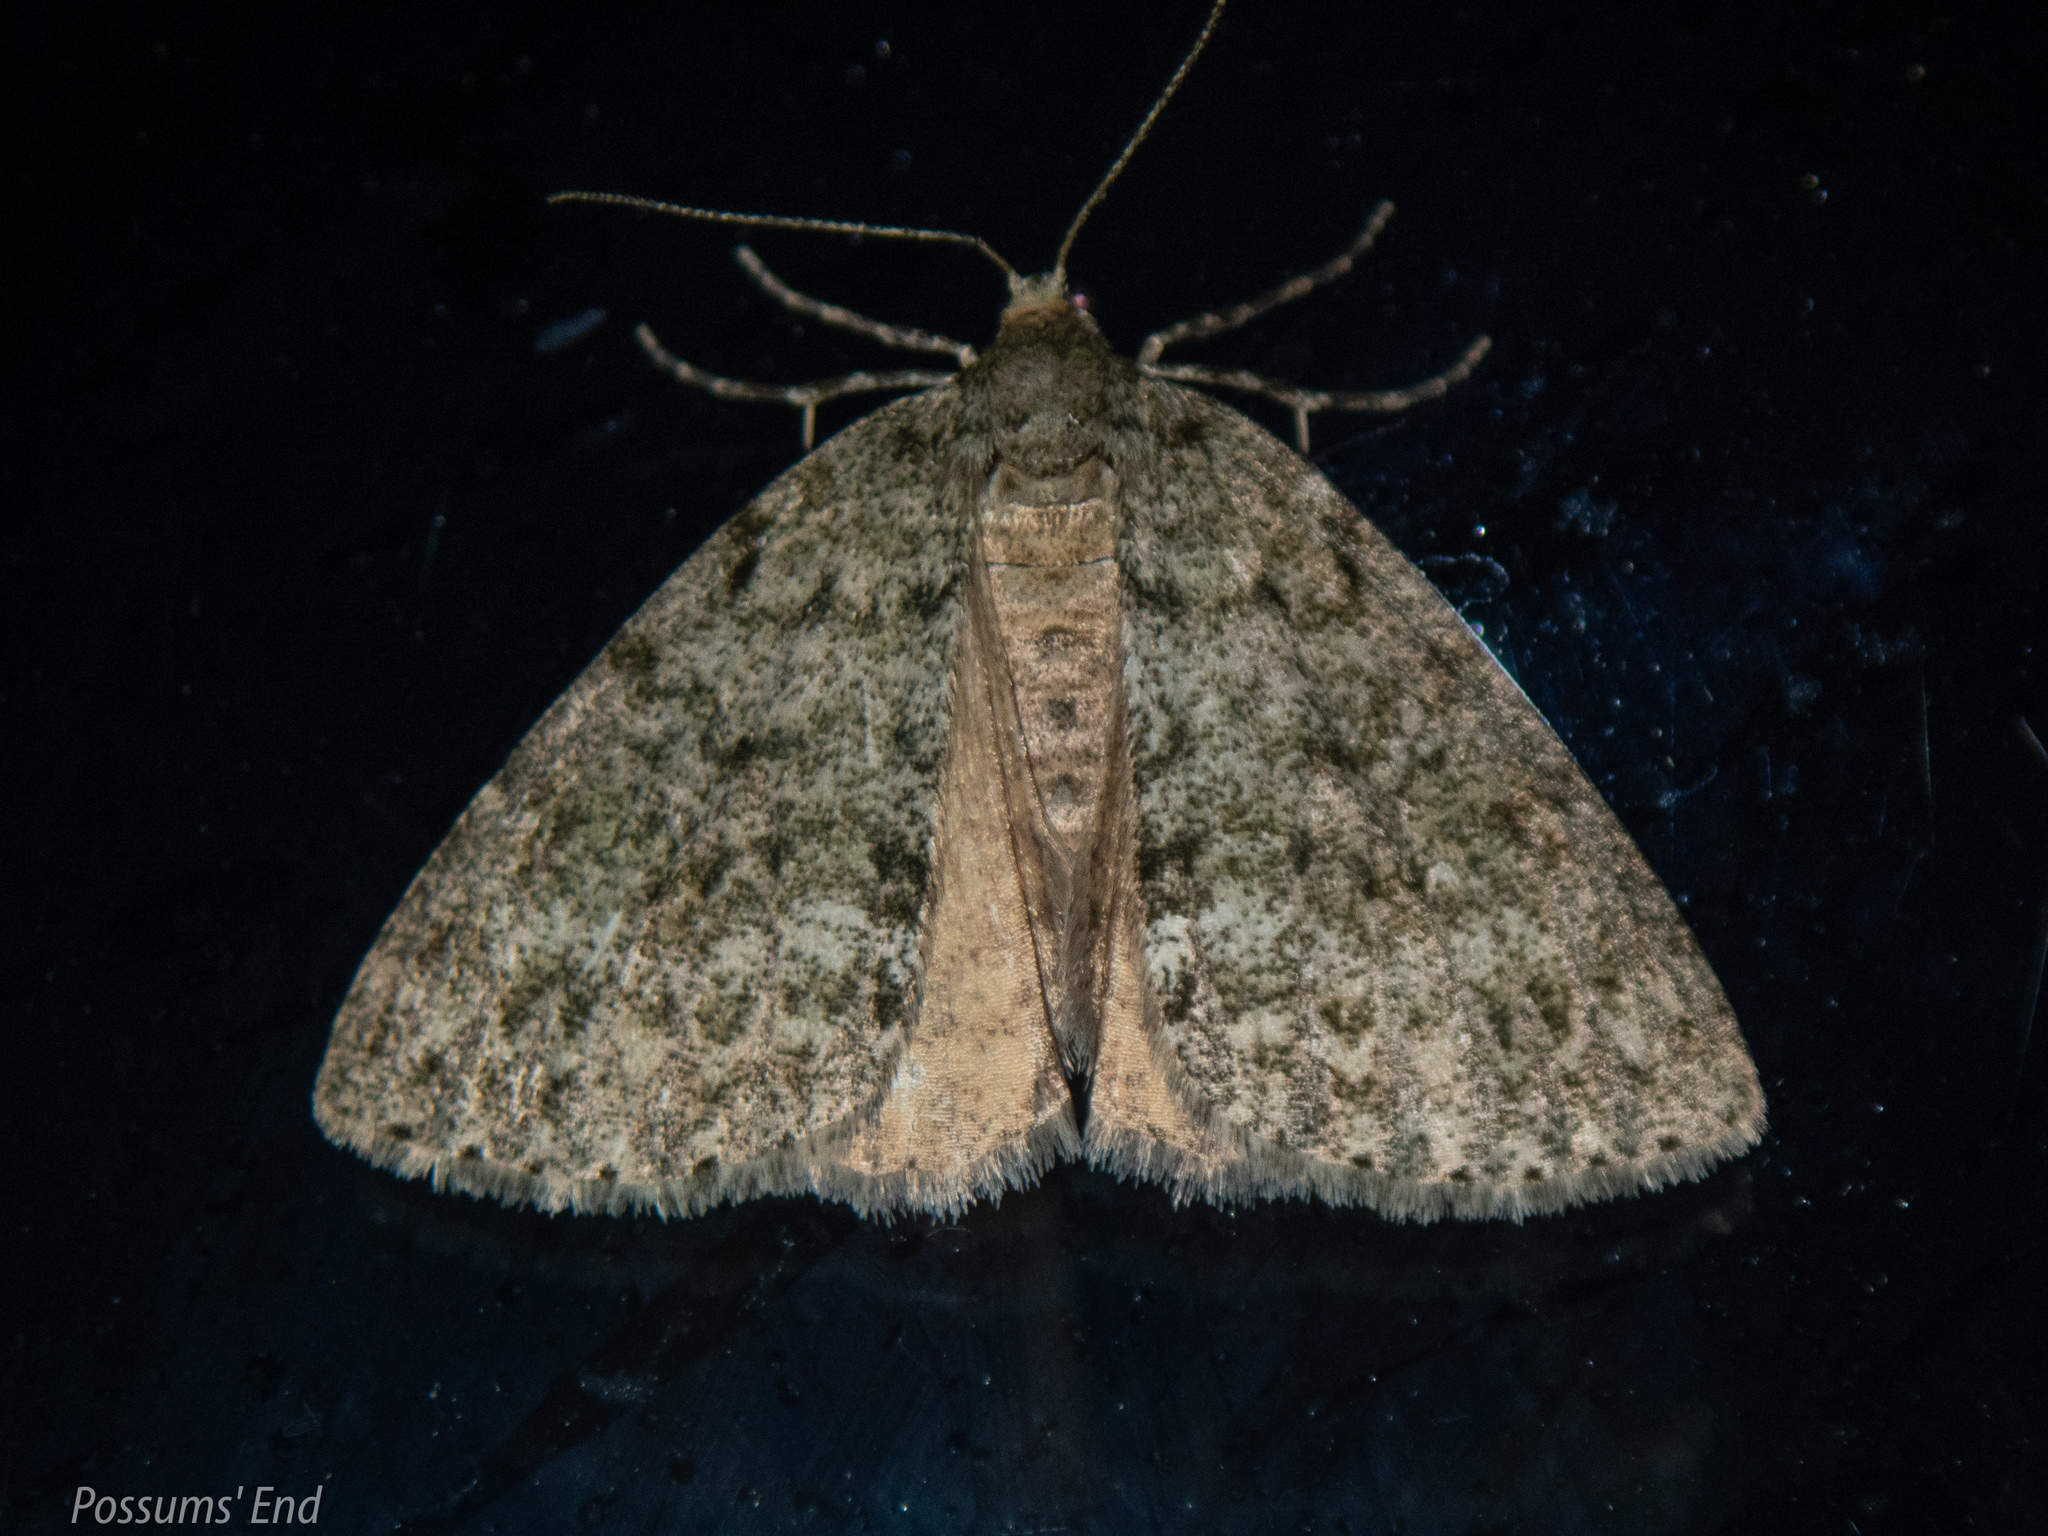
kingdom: Animalia
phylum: Arthropoda
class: Insecta
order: Lepidoptera
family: Geometridae
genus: Pseudocoremia
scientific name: Pseudocoremia indistincta
